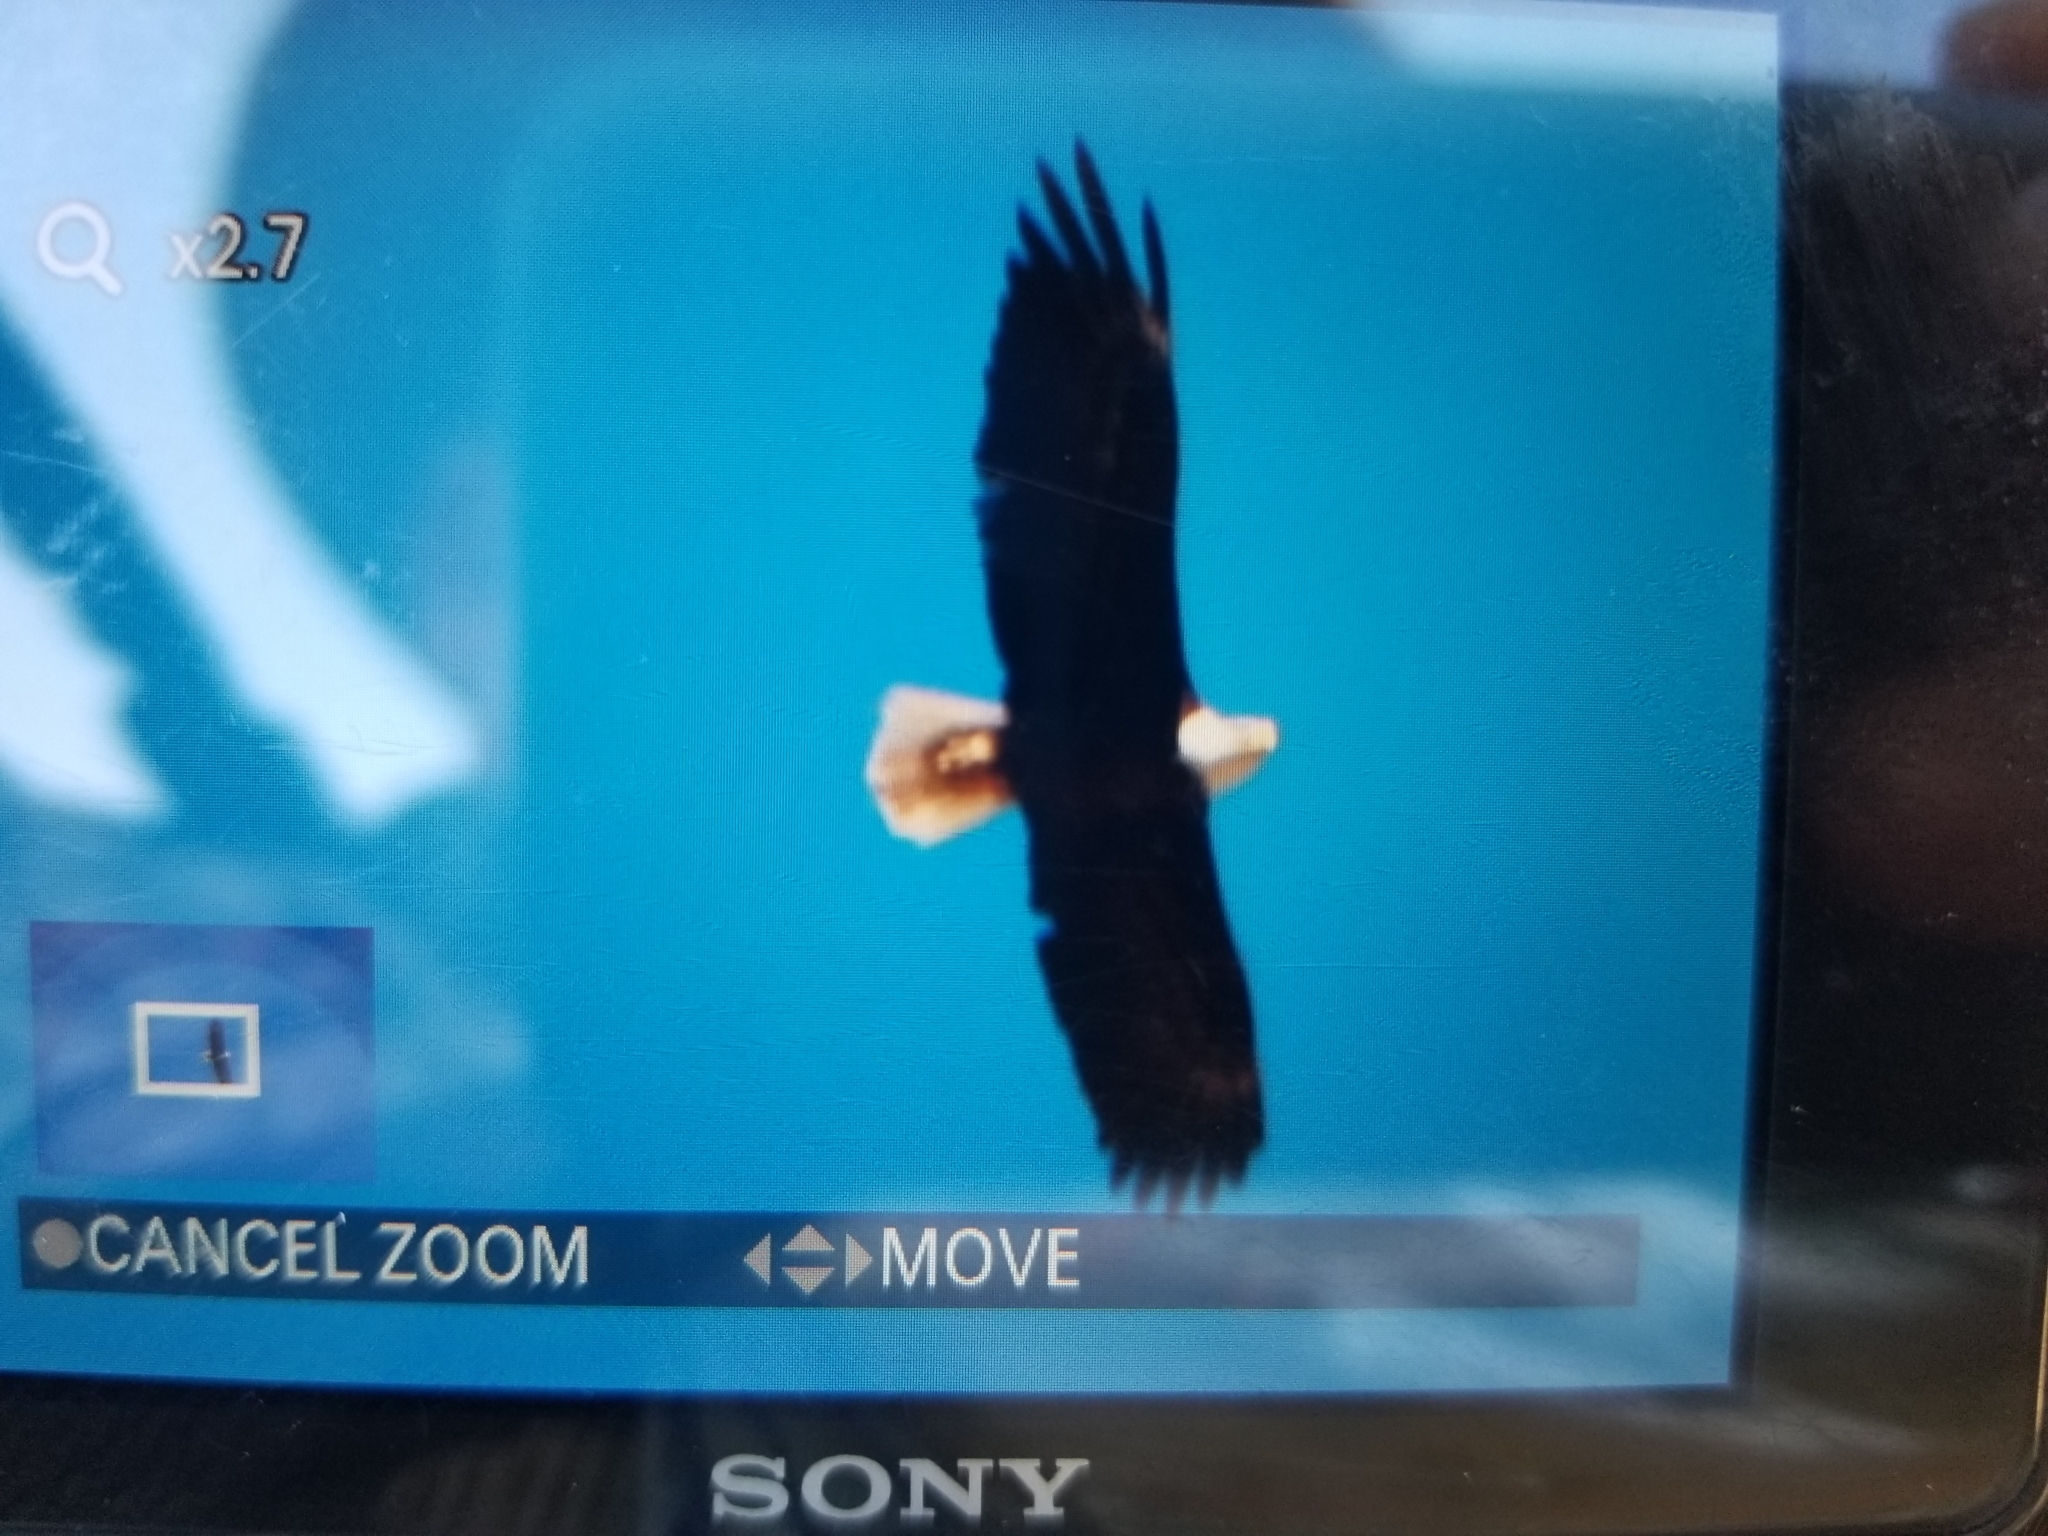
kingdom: Animalia
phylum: Chordata
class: Aves
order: Accipitriformes
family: Accipitridae
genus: Haliaeetus
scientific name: Haliaeetus leucocephalus
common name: Bald eagle
